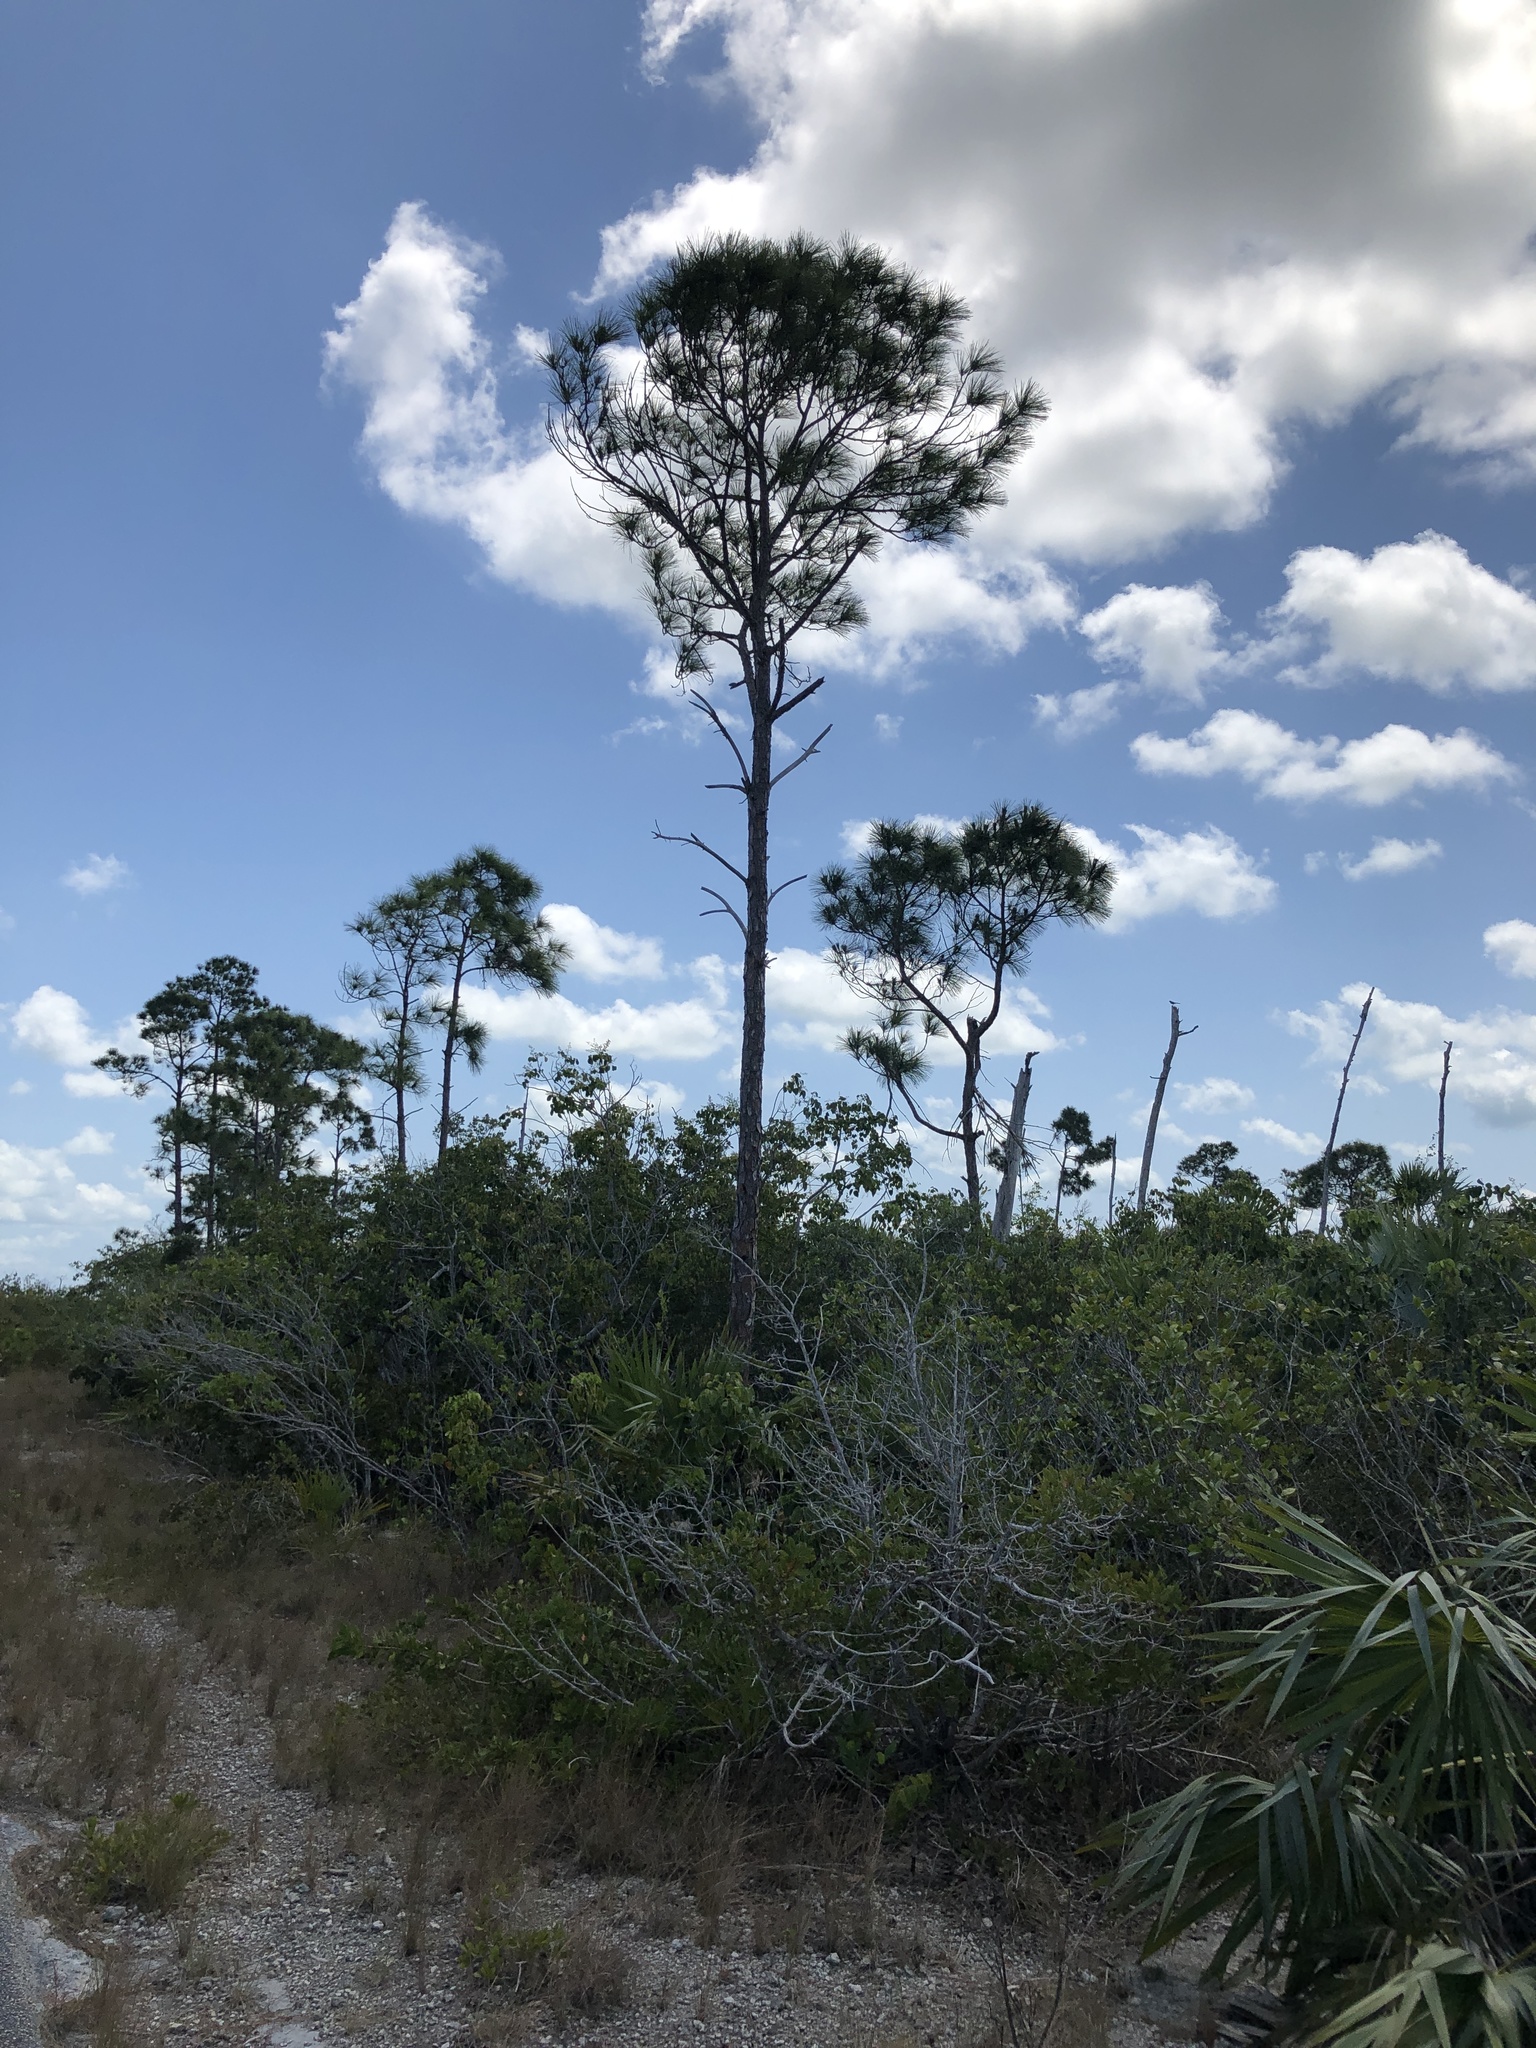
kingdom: Plantae
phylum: Tracheophyta
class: Pinopsida
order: Pinales
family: Pinaceae
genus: Pinus
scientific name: Pinus elliottii
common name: Slash pine
